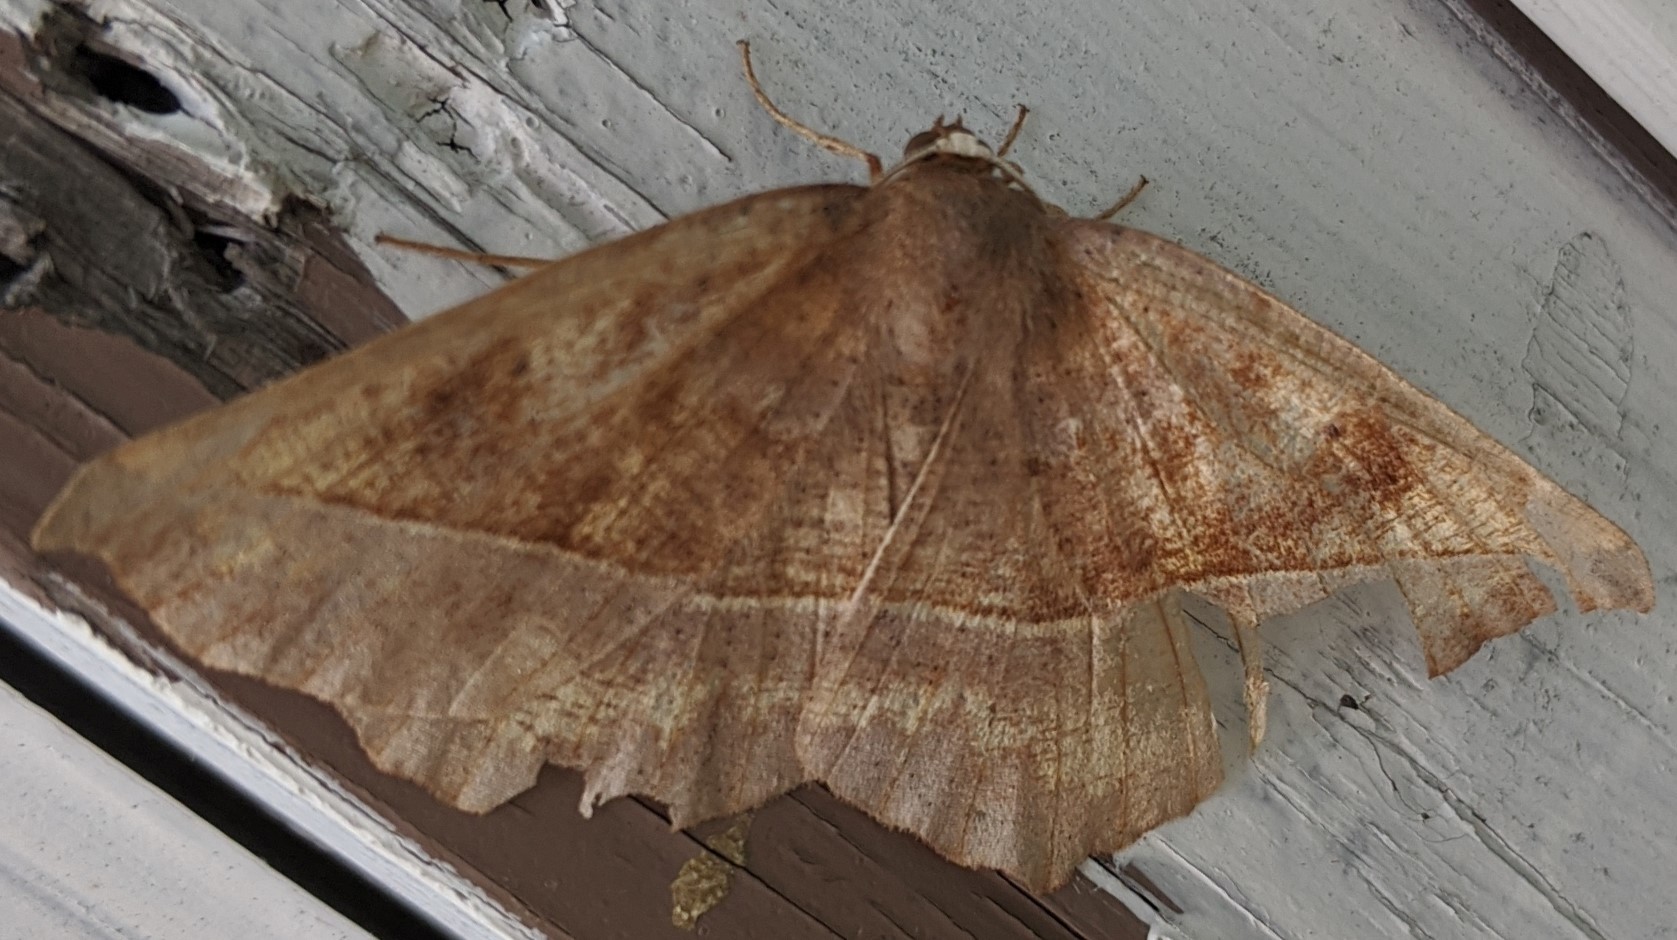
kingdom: Animalia
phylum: Arthropoda
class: Insecta
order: Lepidoptera
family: Geometridae
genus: Eutrapela
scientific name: Eutrapela clemataria
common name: Curved-toothed geometer
